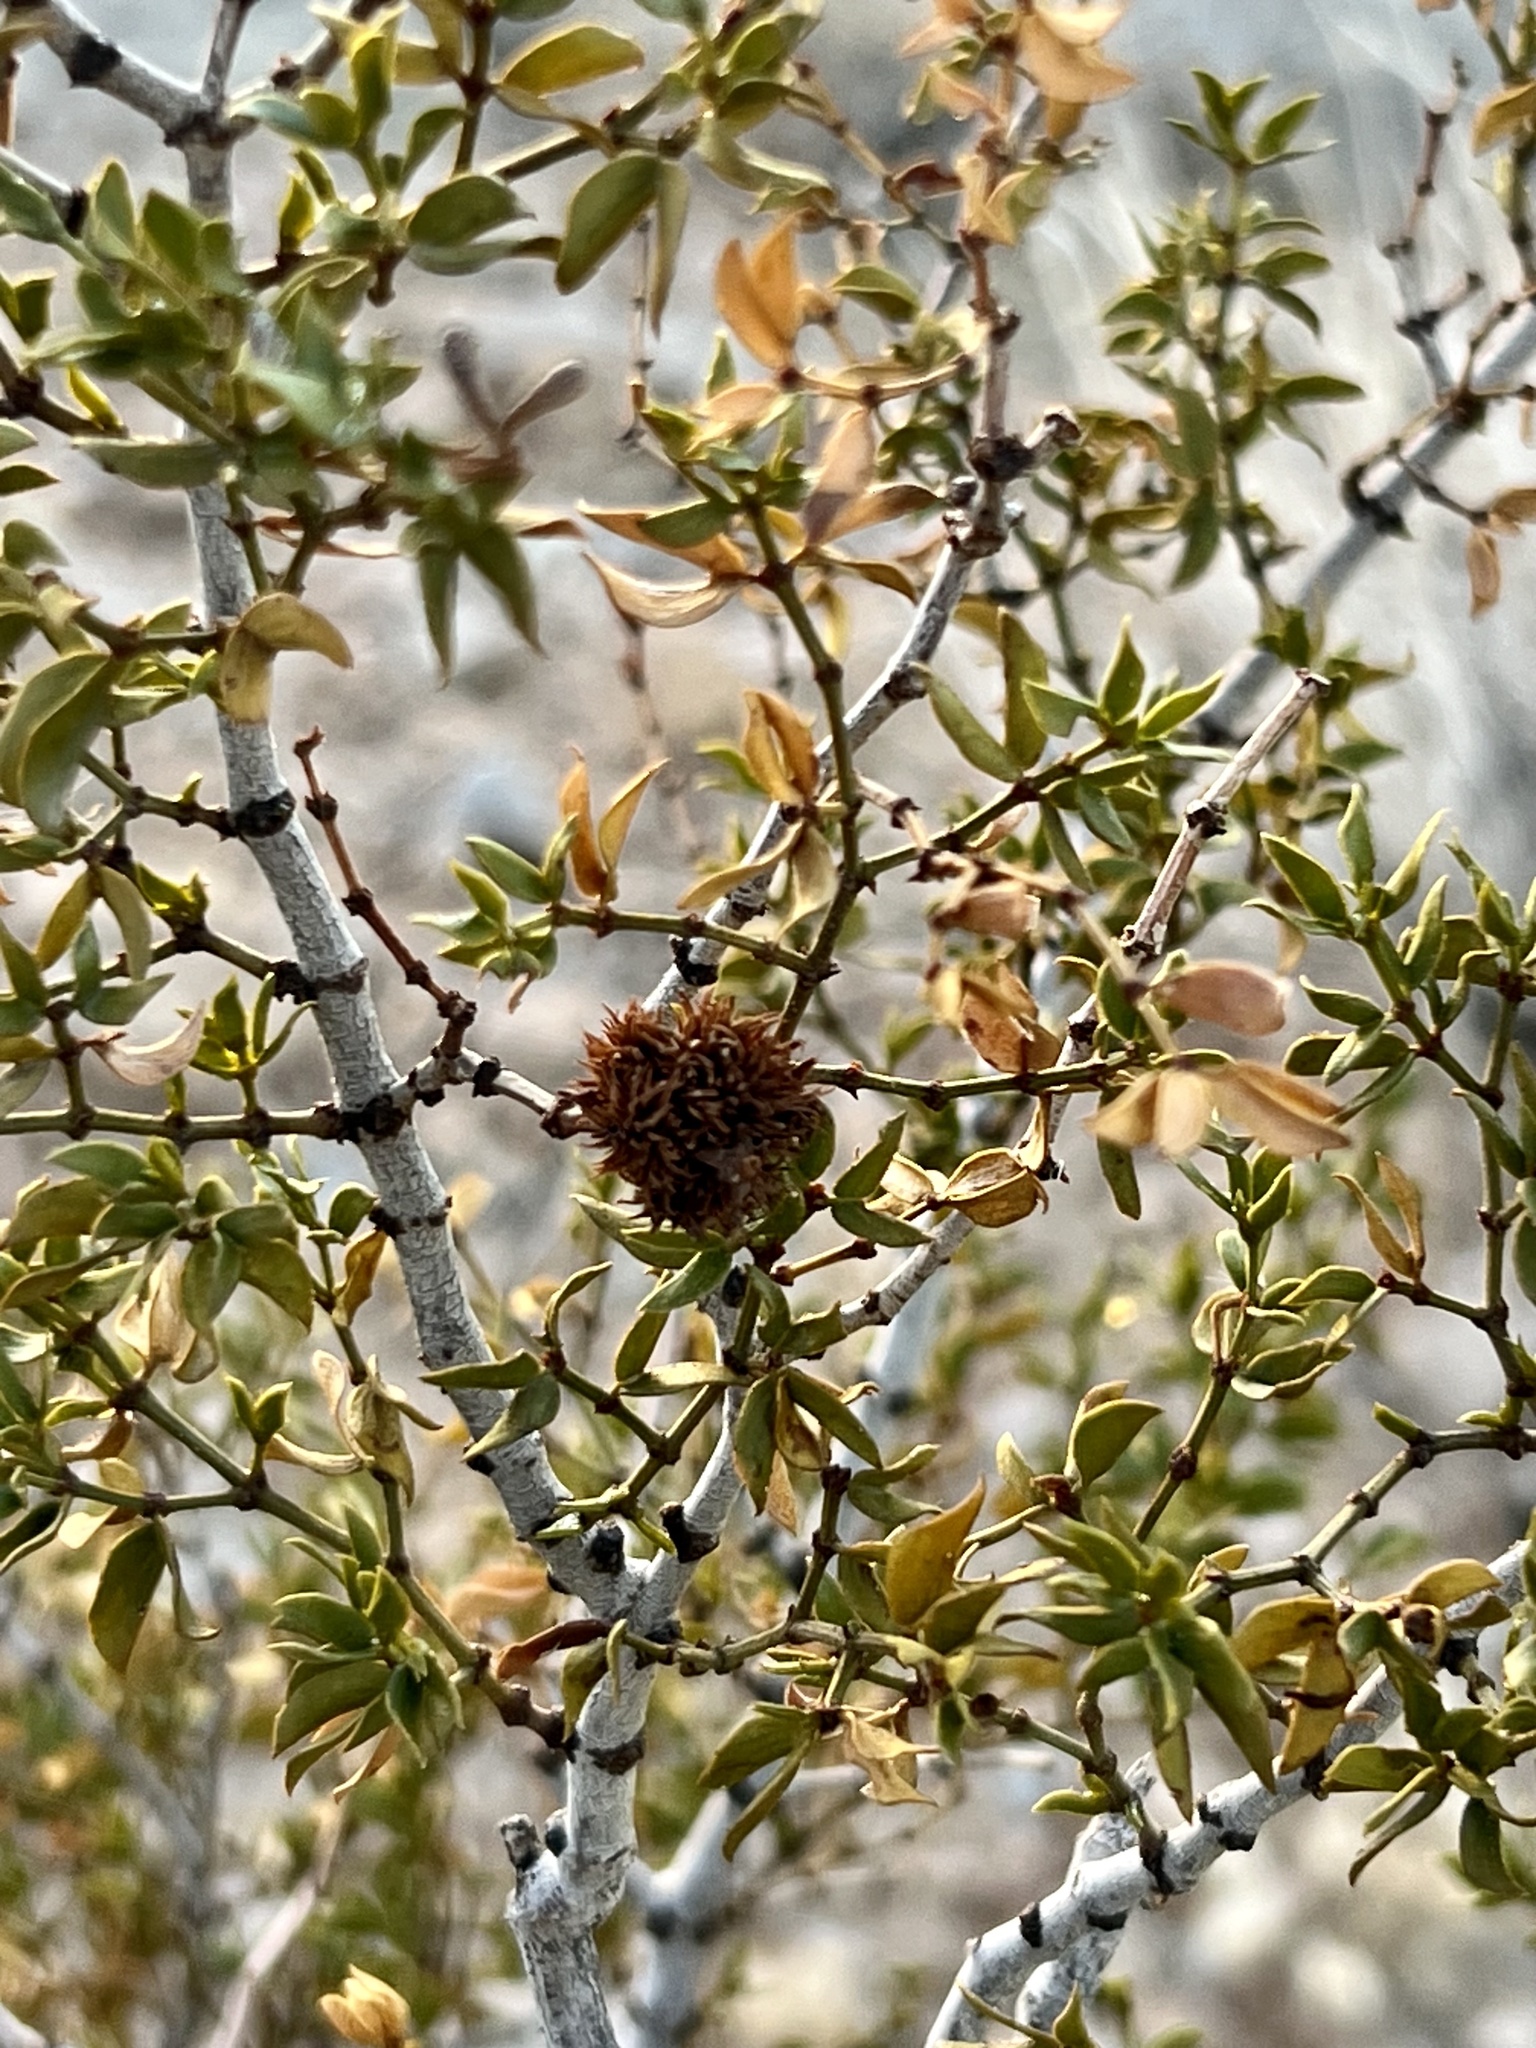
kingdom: Animalia
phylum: Arthropoda
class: Insecta
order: Diptera
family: Cecidomyiidae
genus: Asphondylia
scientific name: Asphondylia auripila
